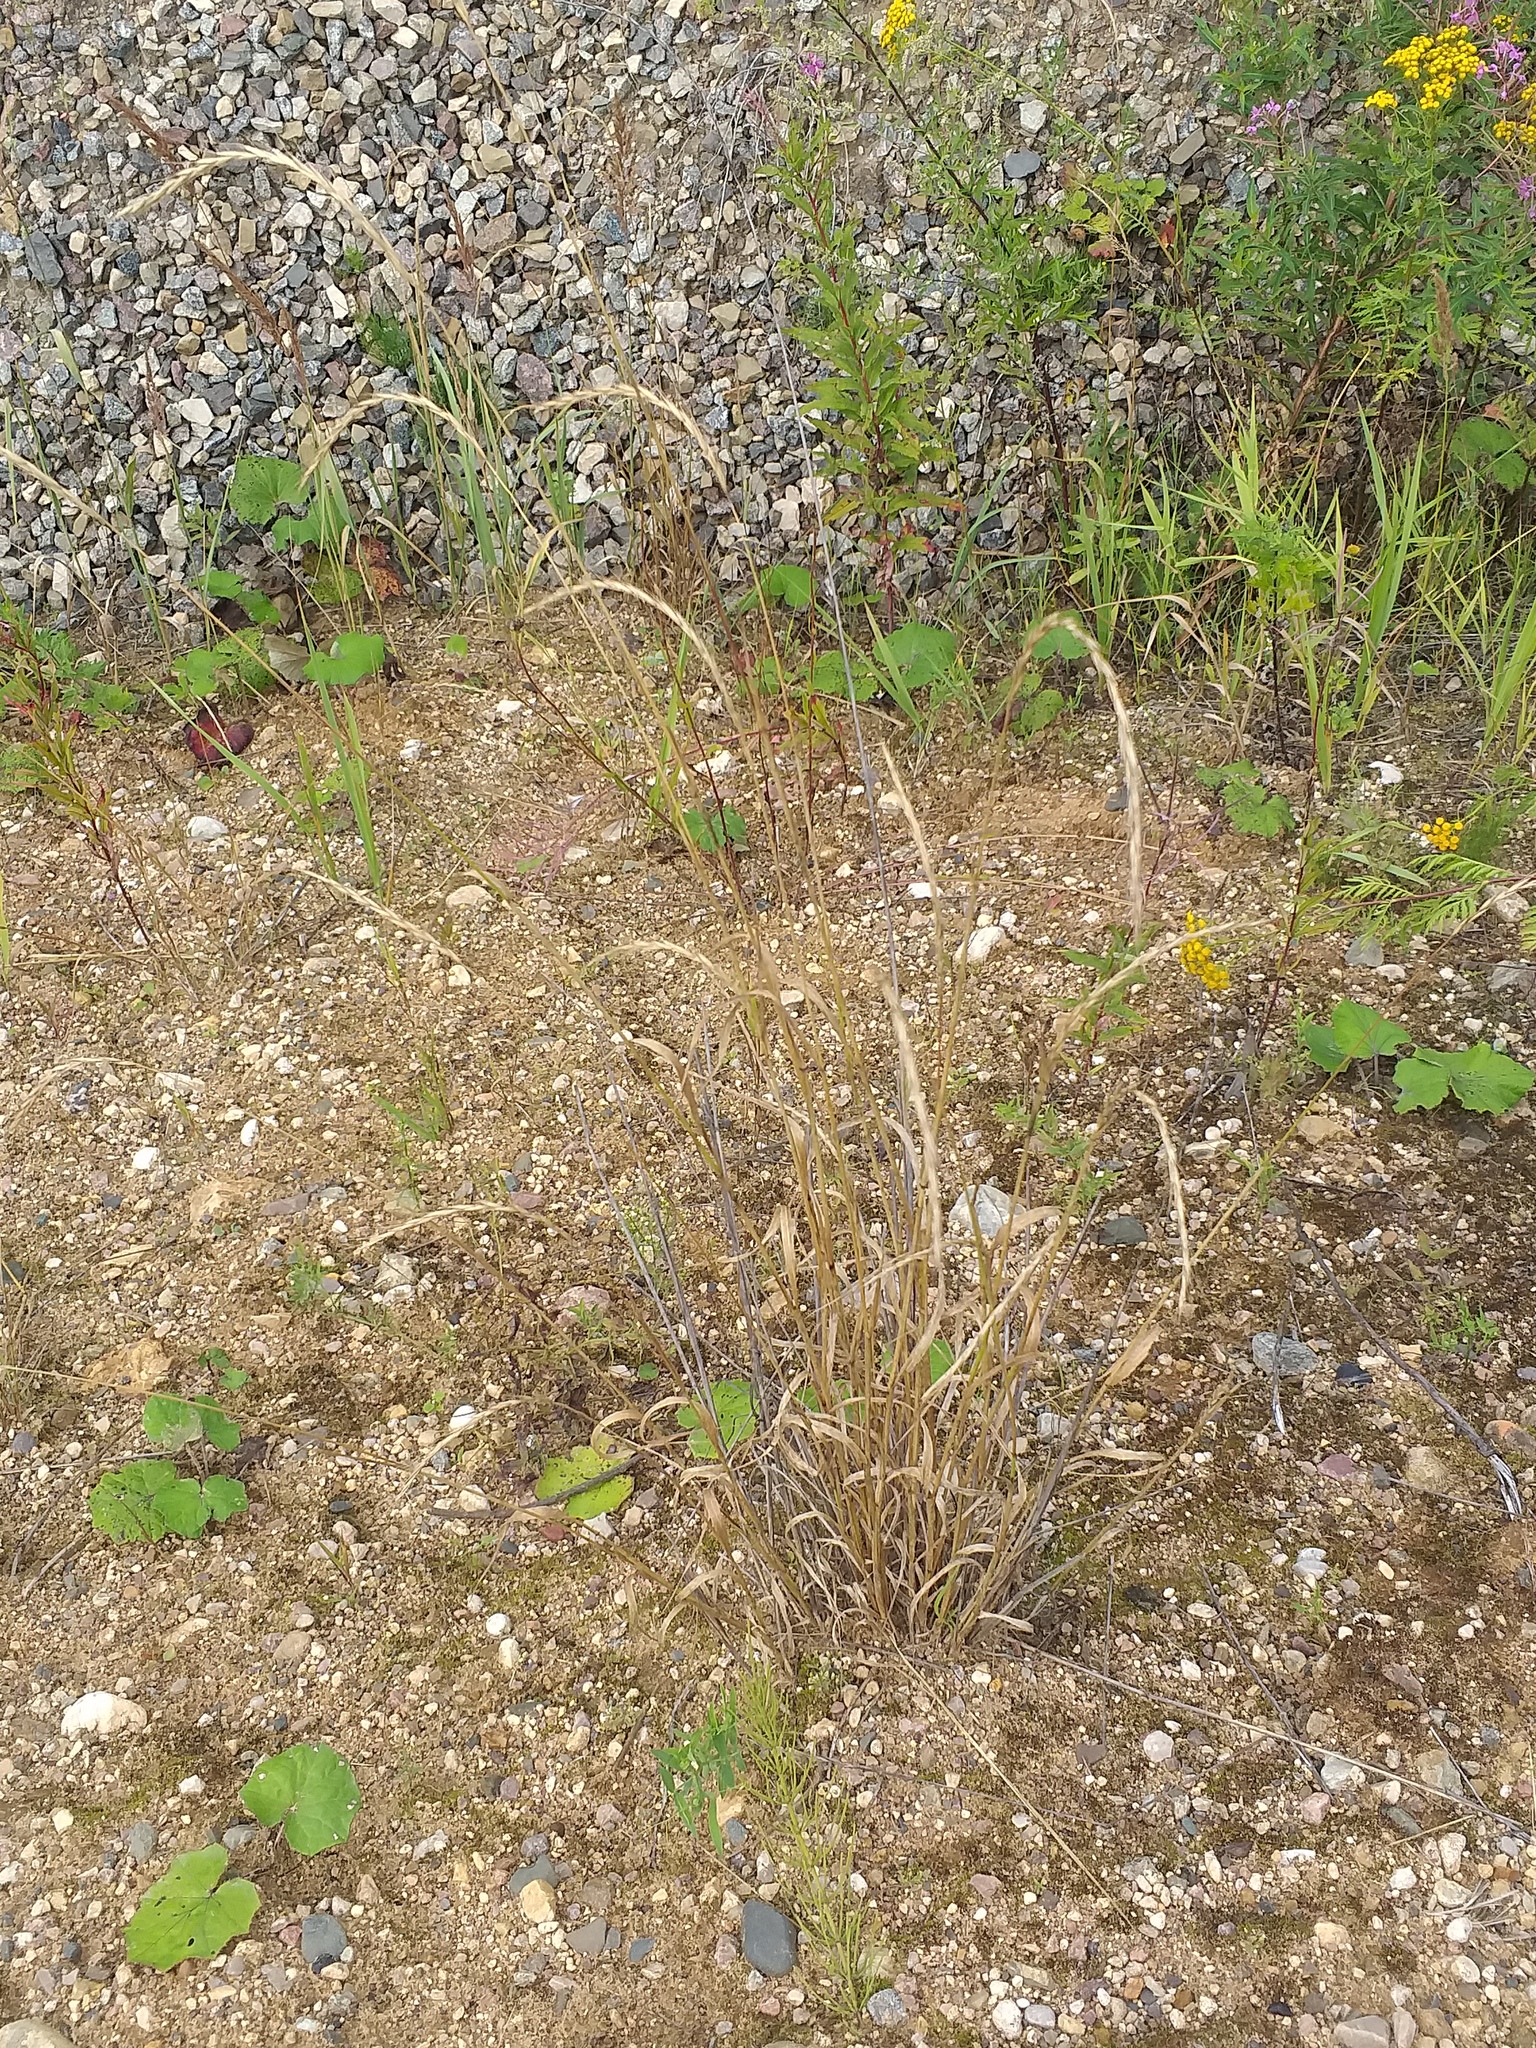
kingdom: Plantae
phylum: Tracheophyta
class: Liliopsida
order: Poales
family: Poaceae
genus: Elymus
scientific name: Elymus caninus
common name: Bearded couch
